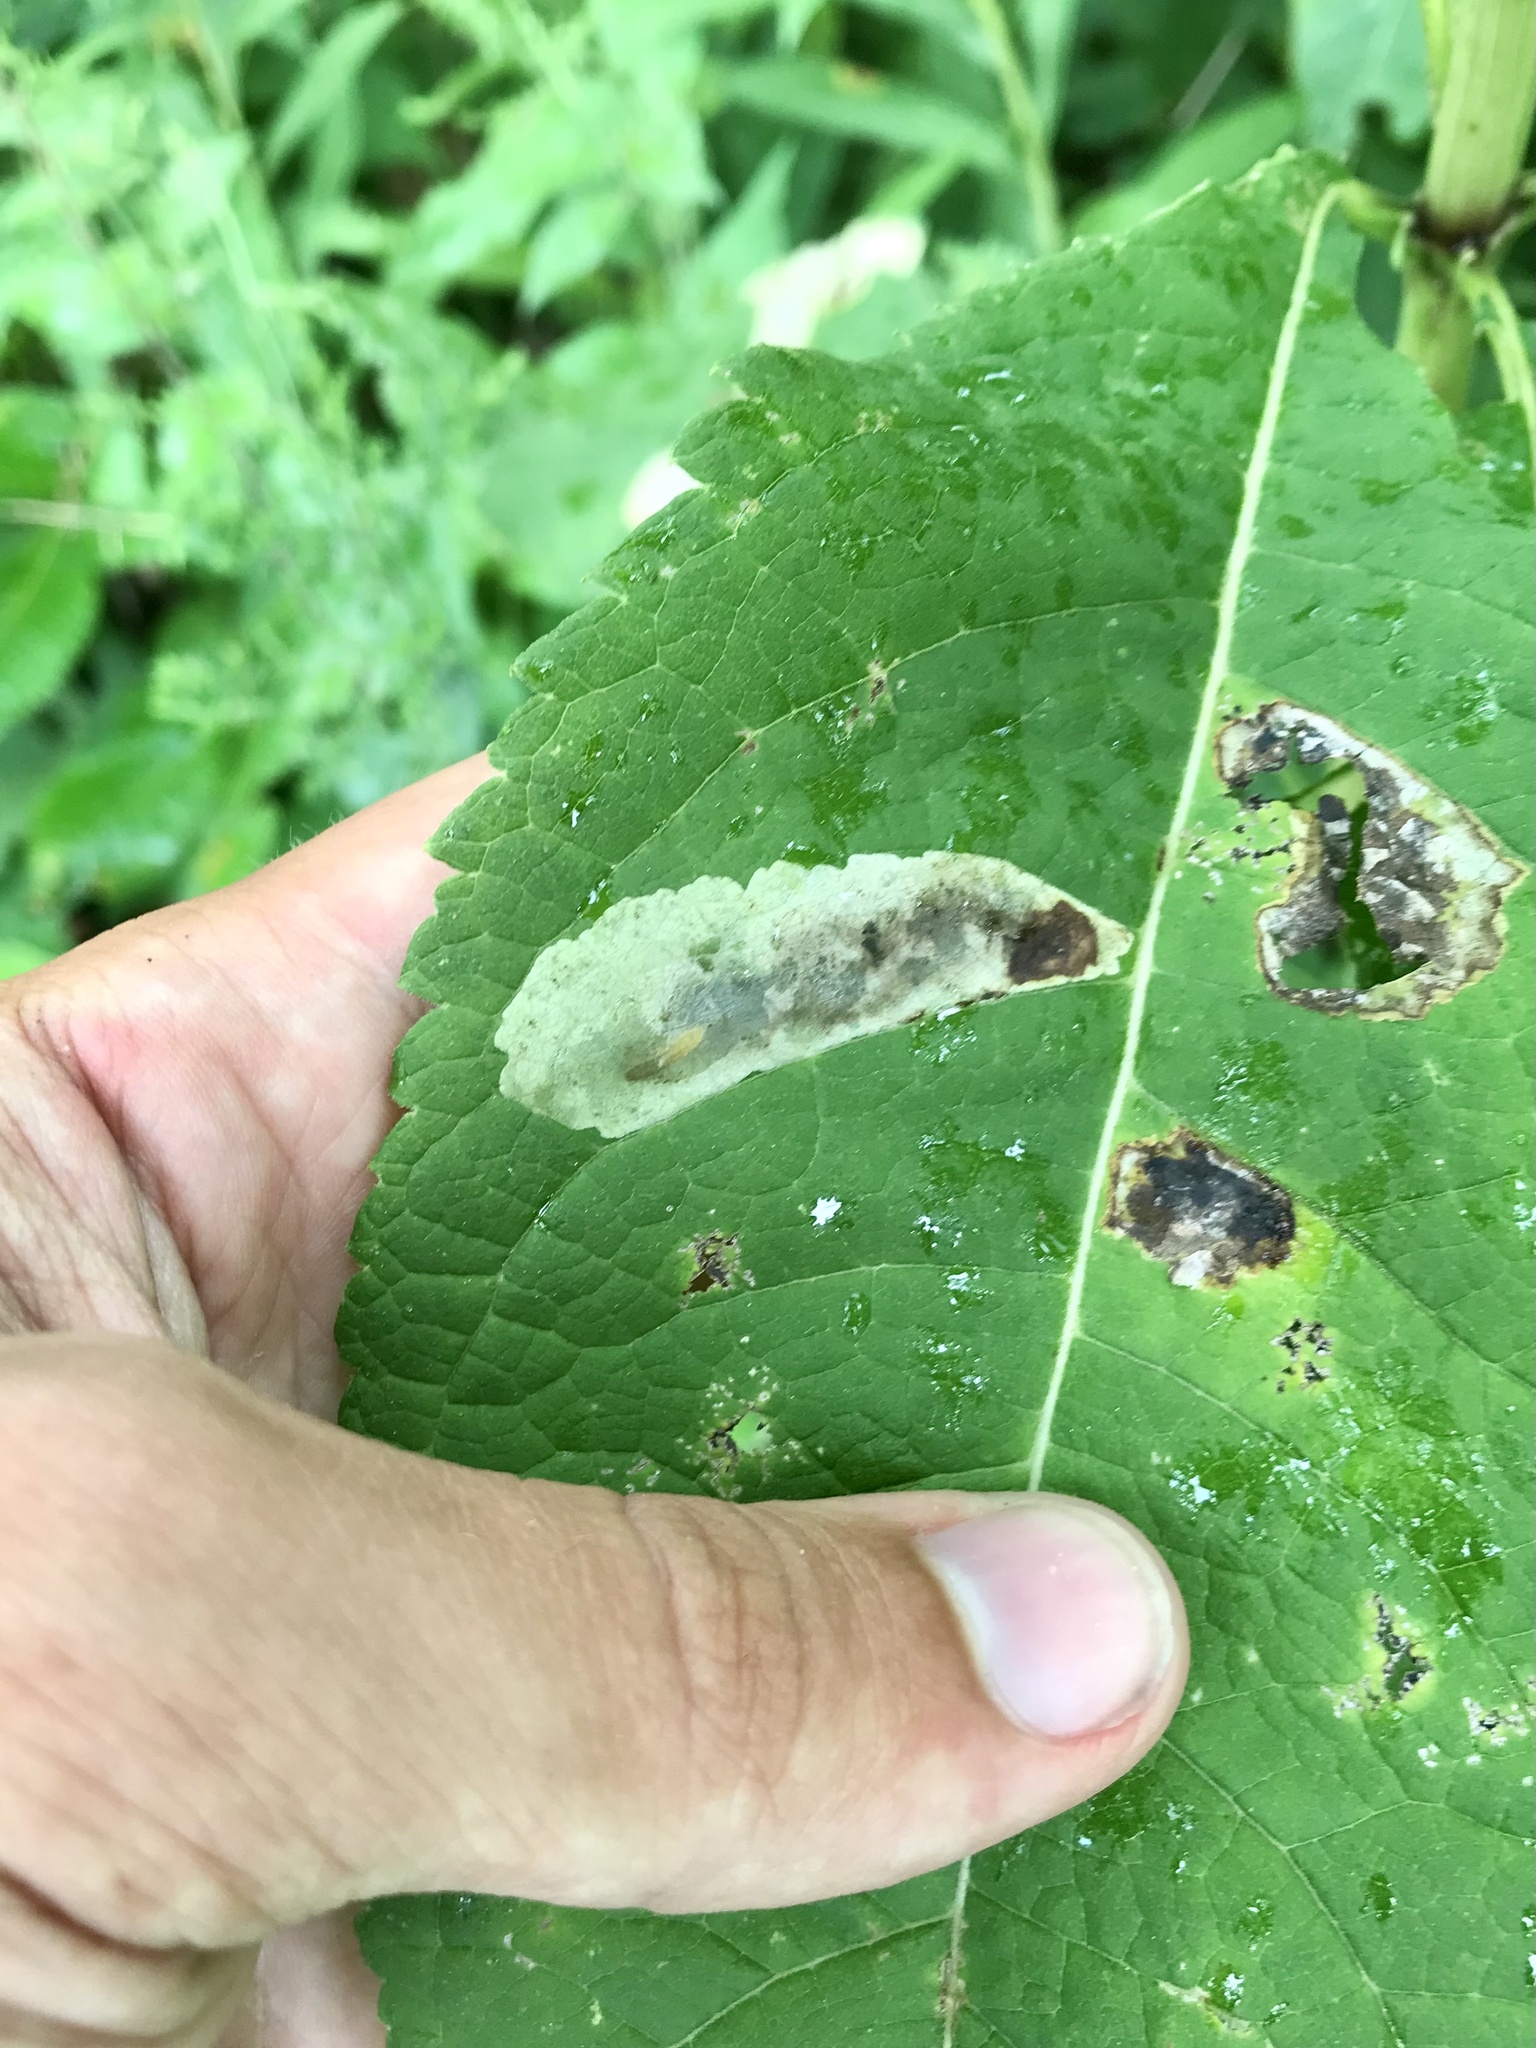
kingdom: Animalia
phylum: Arthropoda
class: Insecta
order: Diptera
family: Agromyzidae
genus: Calycomyza
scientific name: Calycomyza flavinotum
